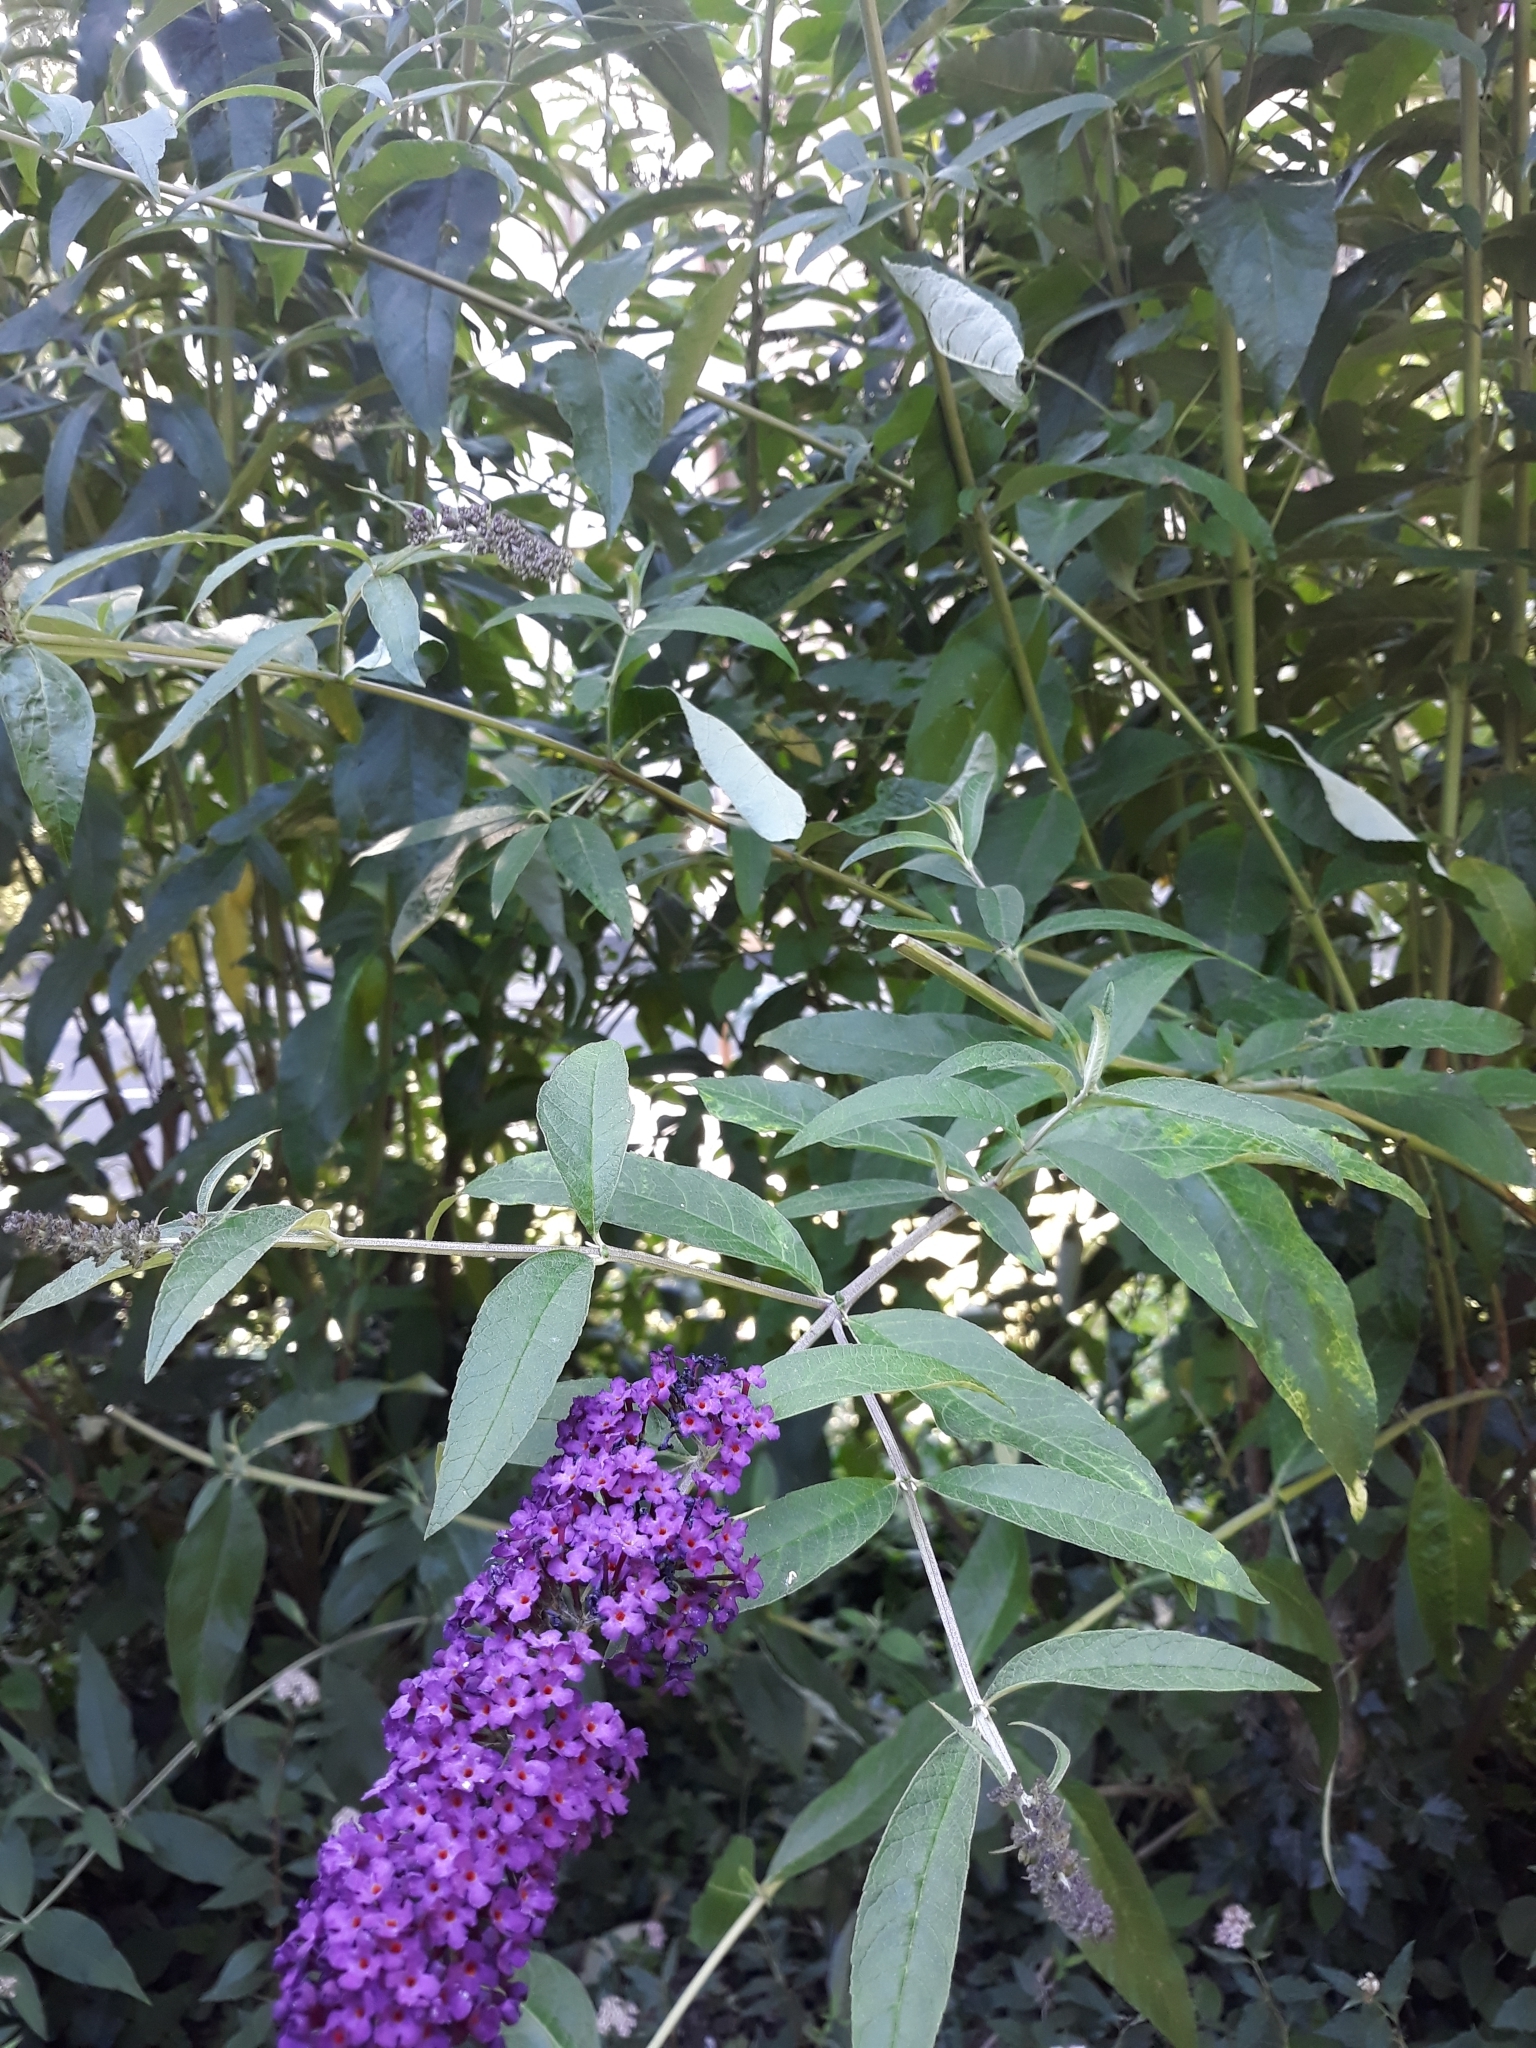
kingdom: Plantae
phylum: Tracheophyta
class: Magnoliopsida
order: Lamiales
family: Scrophulariaceae
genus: Buddleja
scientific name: Buddleja davidii
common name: Butterfly-bush
